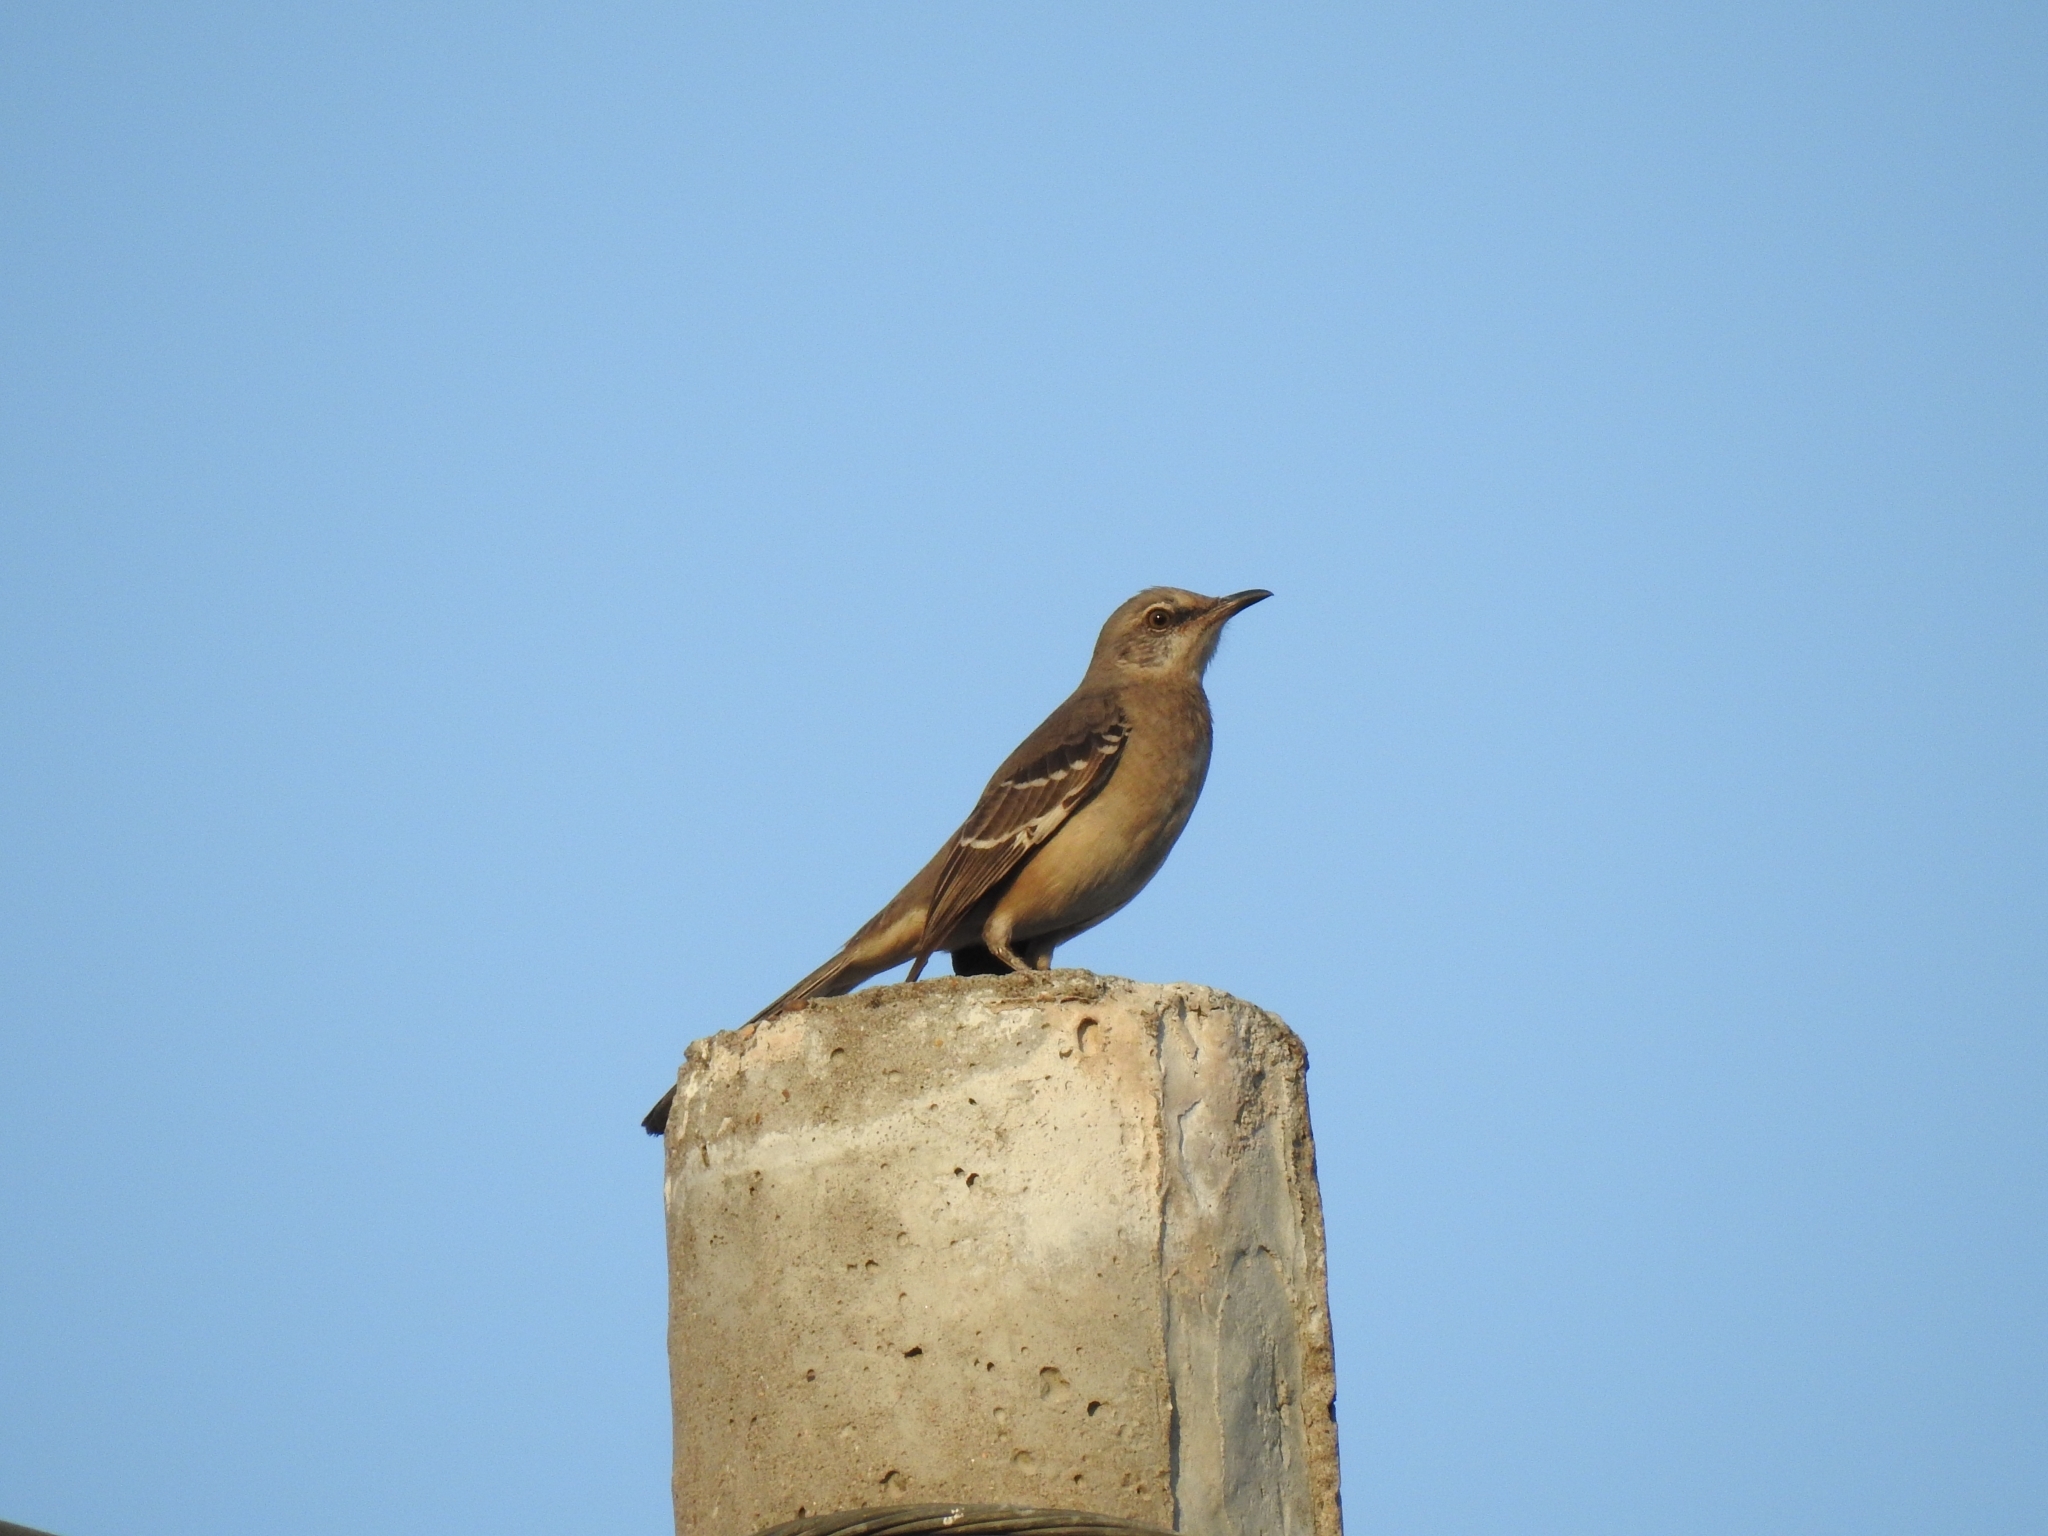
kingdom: Animalia
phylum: Chordata
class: Aves
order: Passeriformes
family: Mimidae
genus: Mimus
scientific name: Mimus polyglottos
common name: Northern mockingbird
